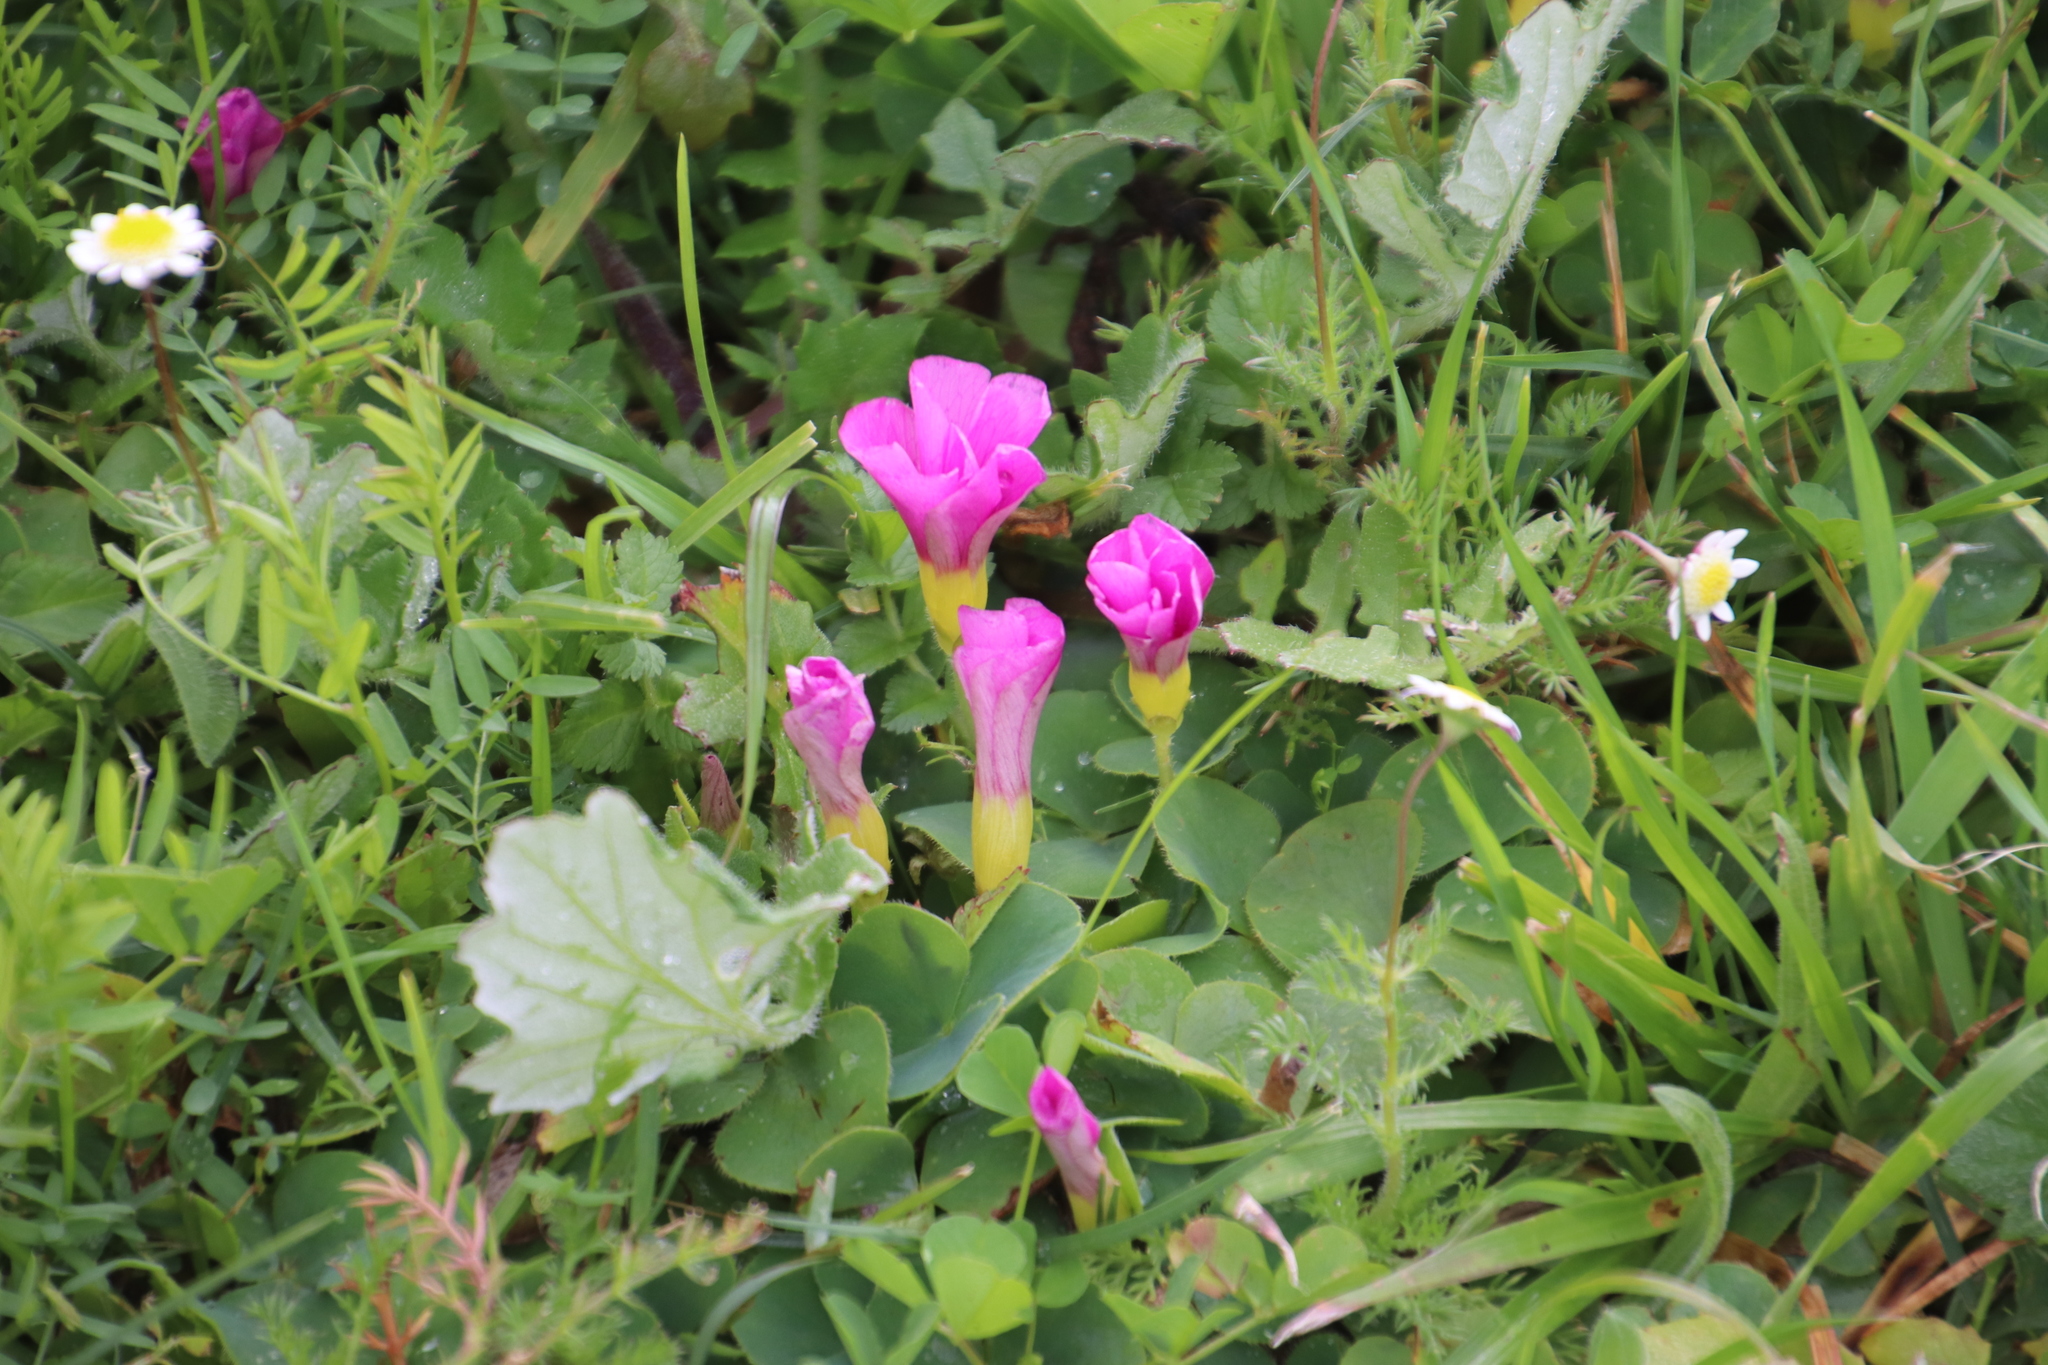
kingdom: Plantae
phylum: Tracheophyta
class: Magnoliopsida
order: Oxalidales
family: Oxalidaceae
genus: Oxalis
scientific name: Oxalis purpurea
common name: Purple woodsorrel
